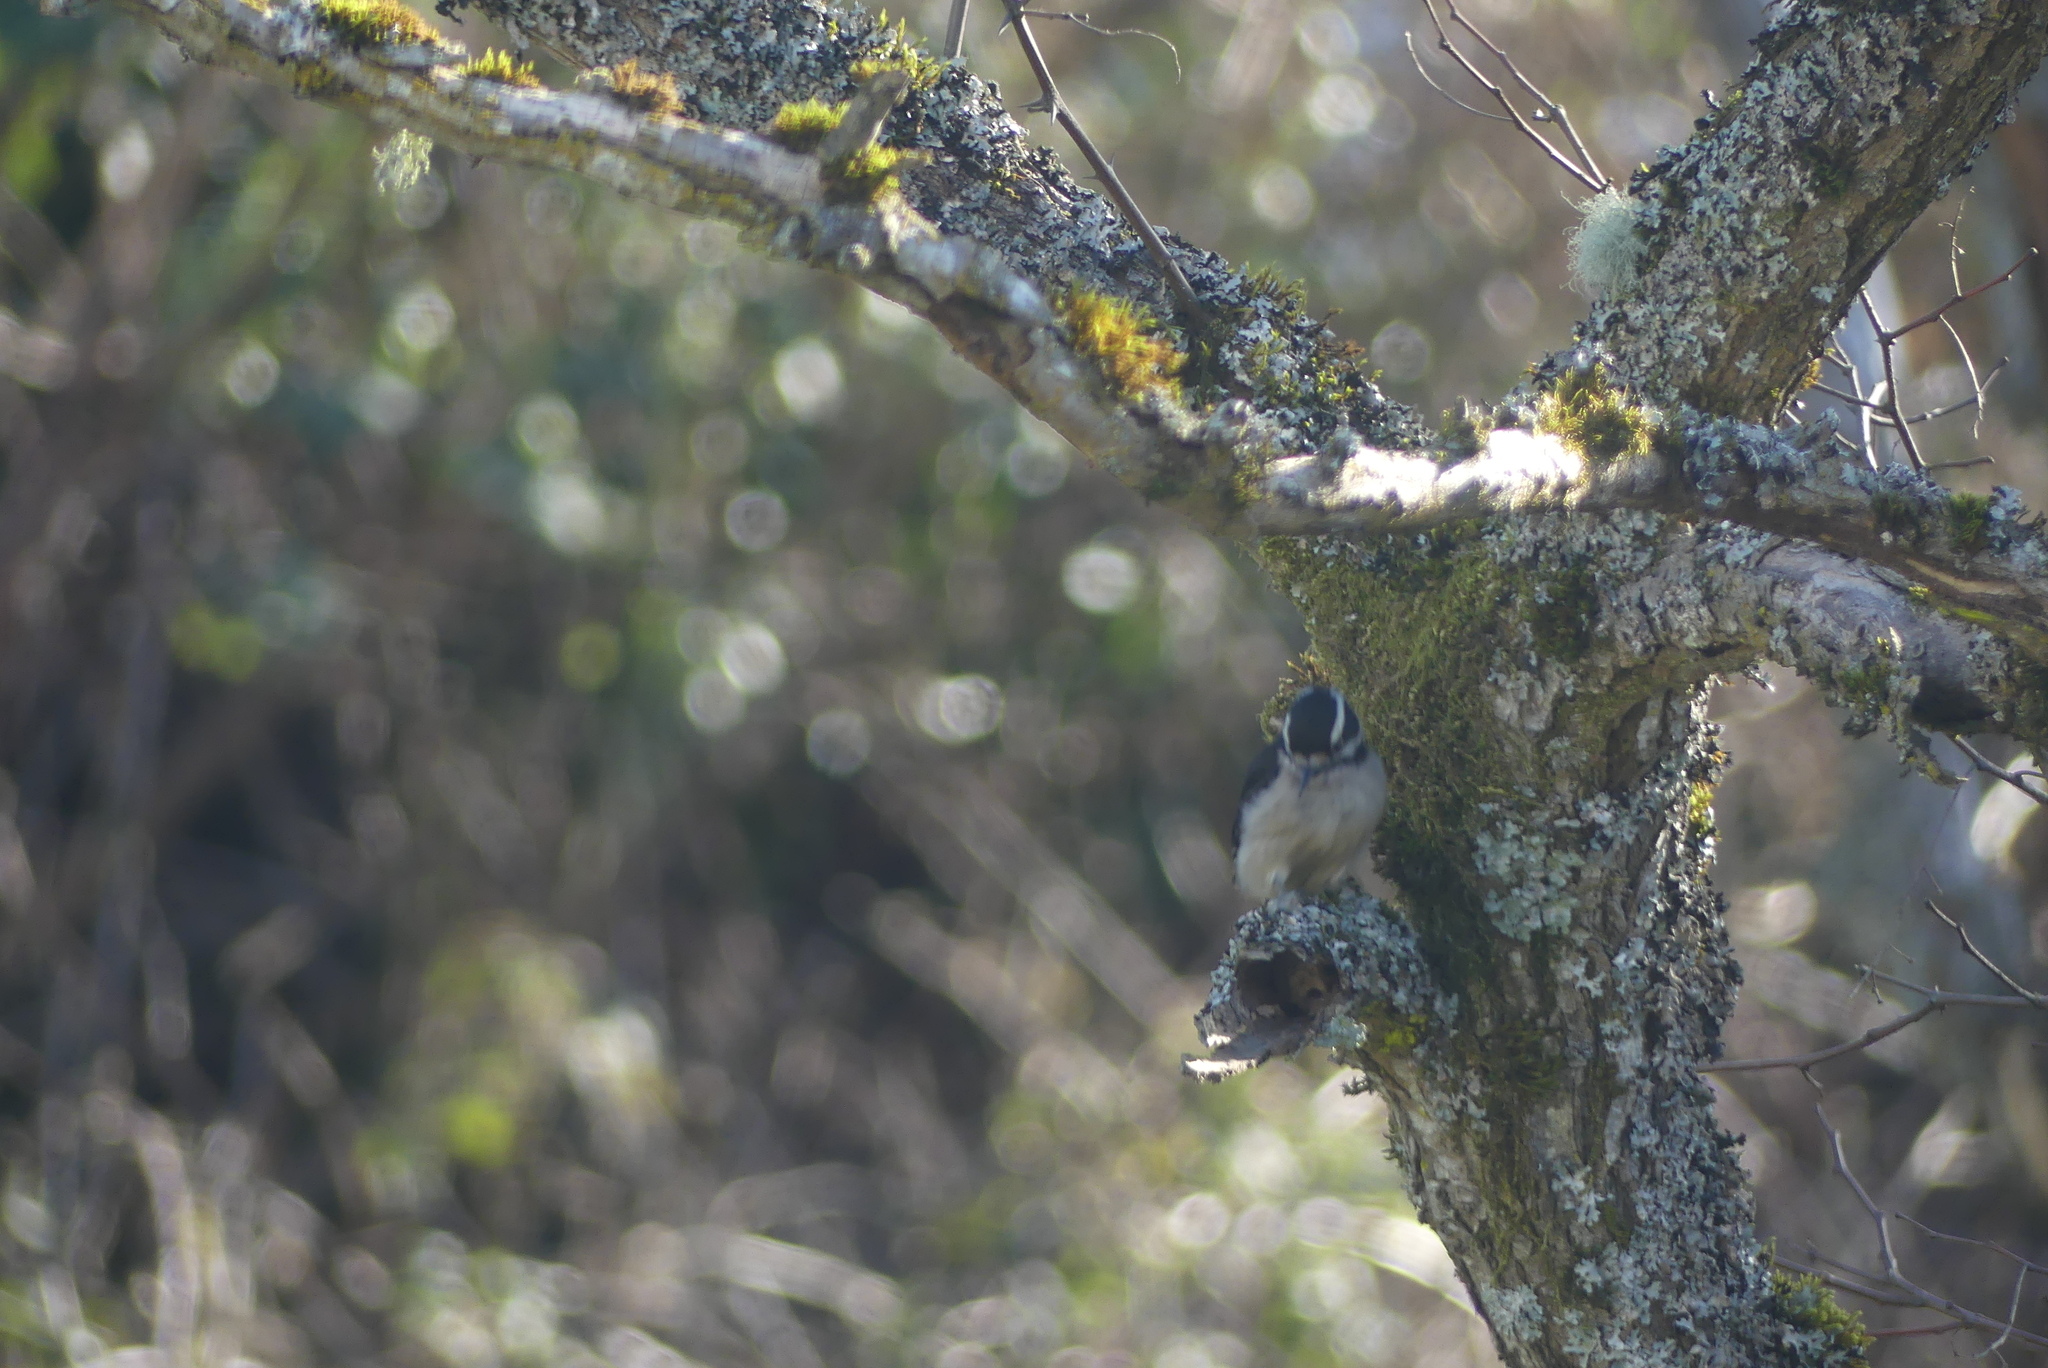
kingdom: Animalia
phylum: Chordata
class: Aves
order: Piciformes
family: Picidae
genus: Dryobates
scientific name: Dryobates pubescens
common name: Downy woodpecker
